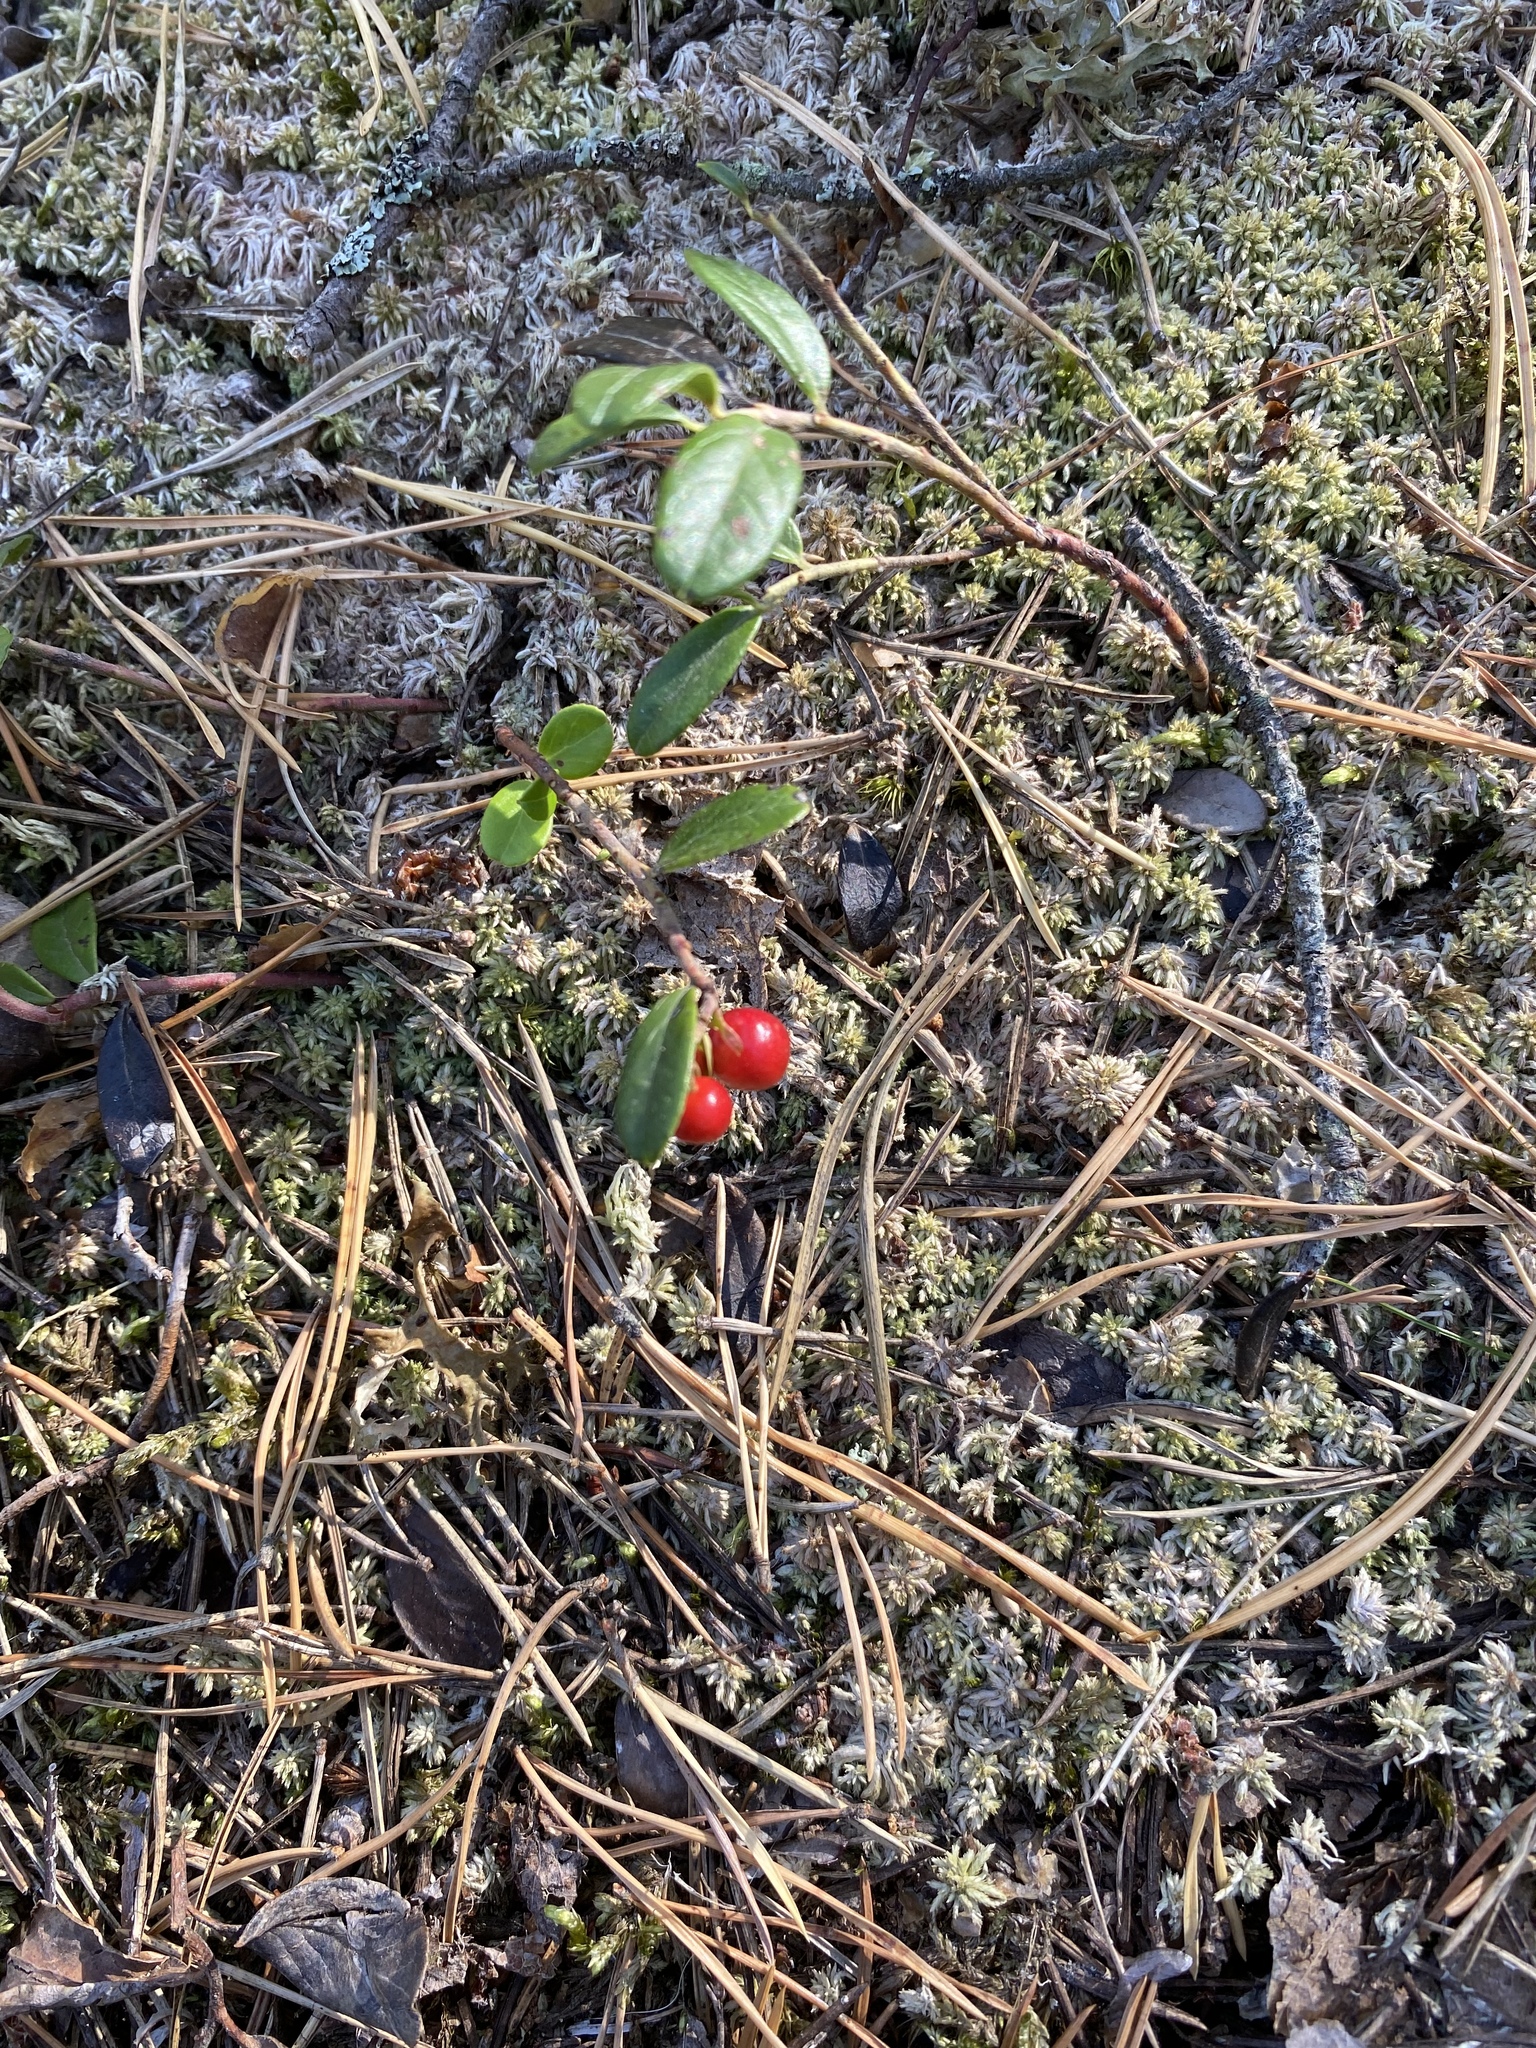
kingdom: Plantae
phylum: Tracheophyta
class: Magnoliopsida
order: Ericales
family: Ericaceae
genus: Vaccinium
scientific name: Vaccinium vitis-idaea
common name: Cowberry
